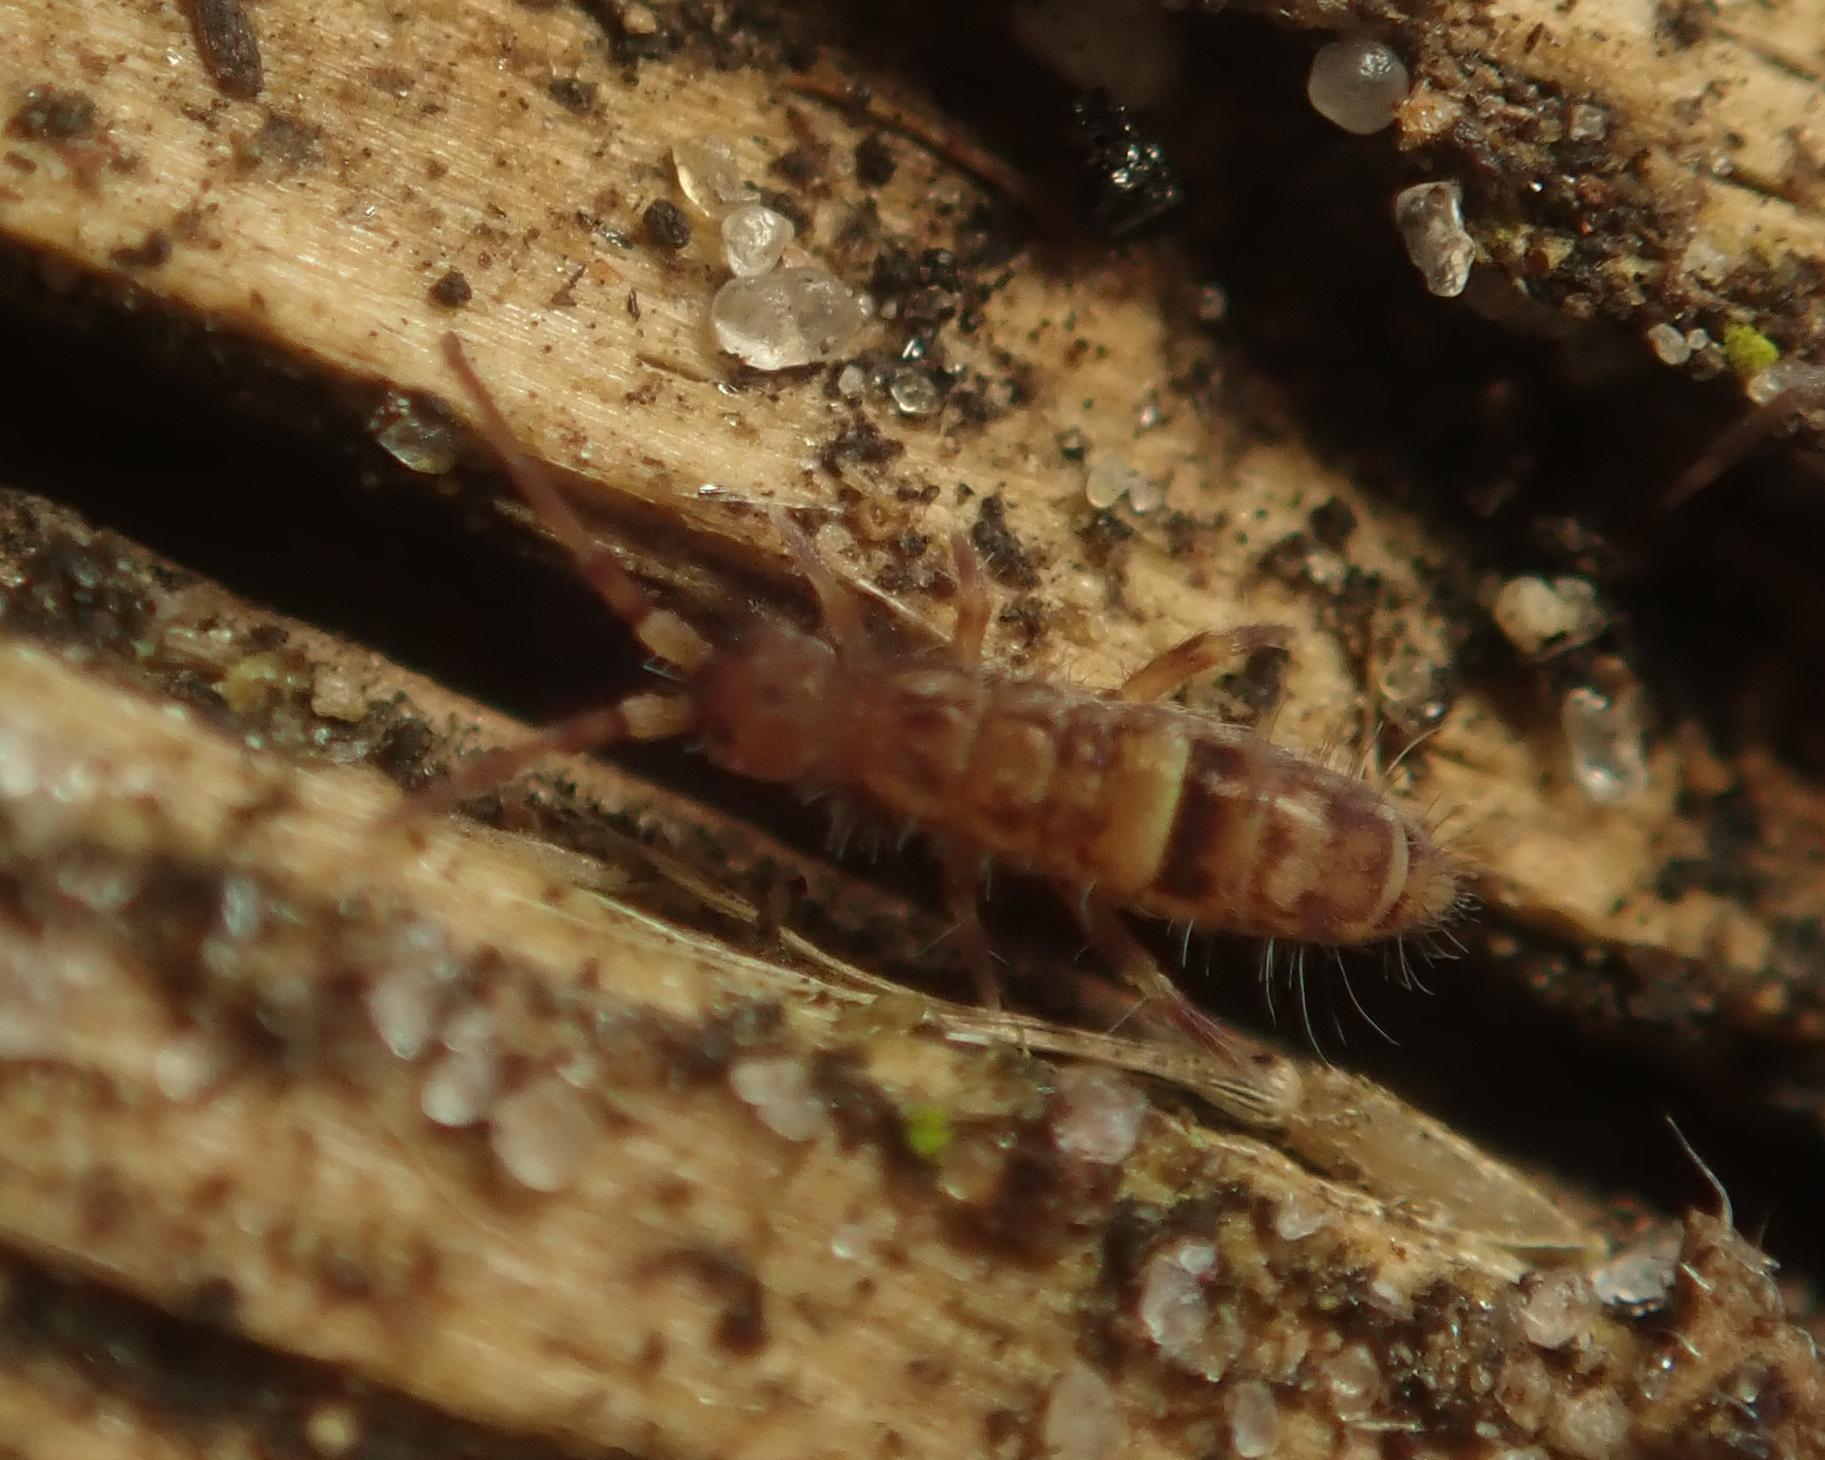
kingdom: Animalia
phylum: Arthropoda
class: Collembola
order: Entomobryomorpha
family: Orchesellidae
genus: Orchesella
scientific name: Orchesella cincta
